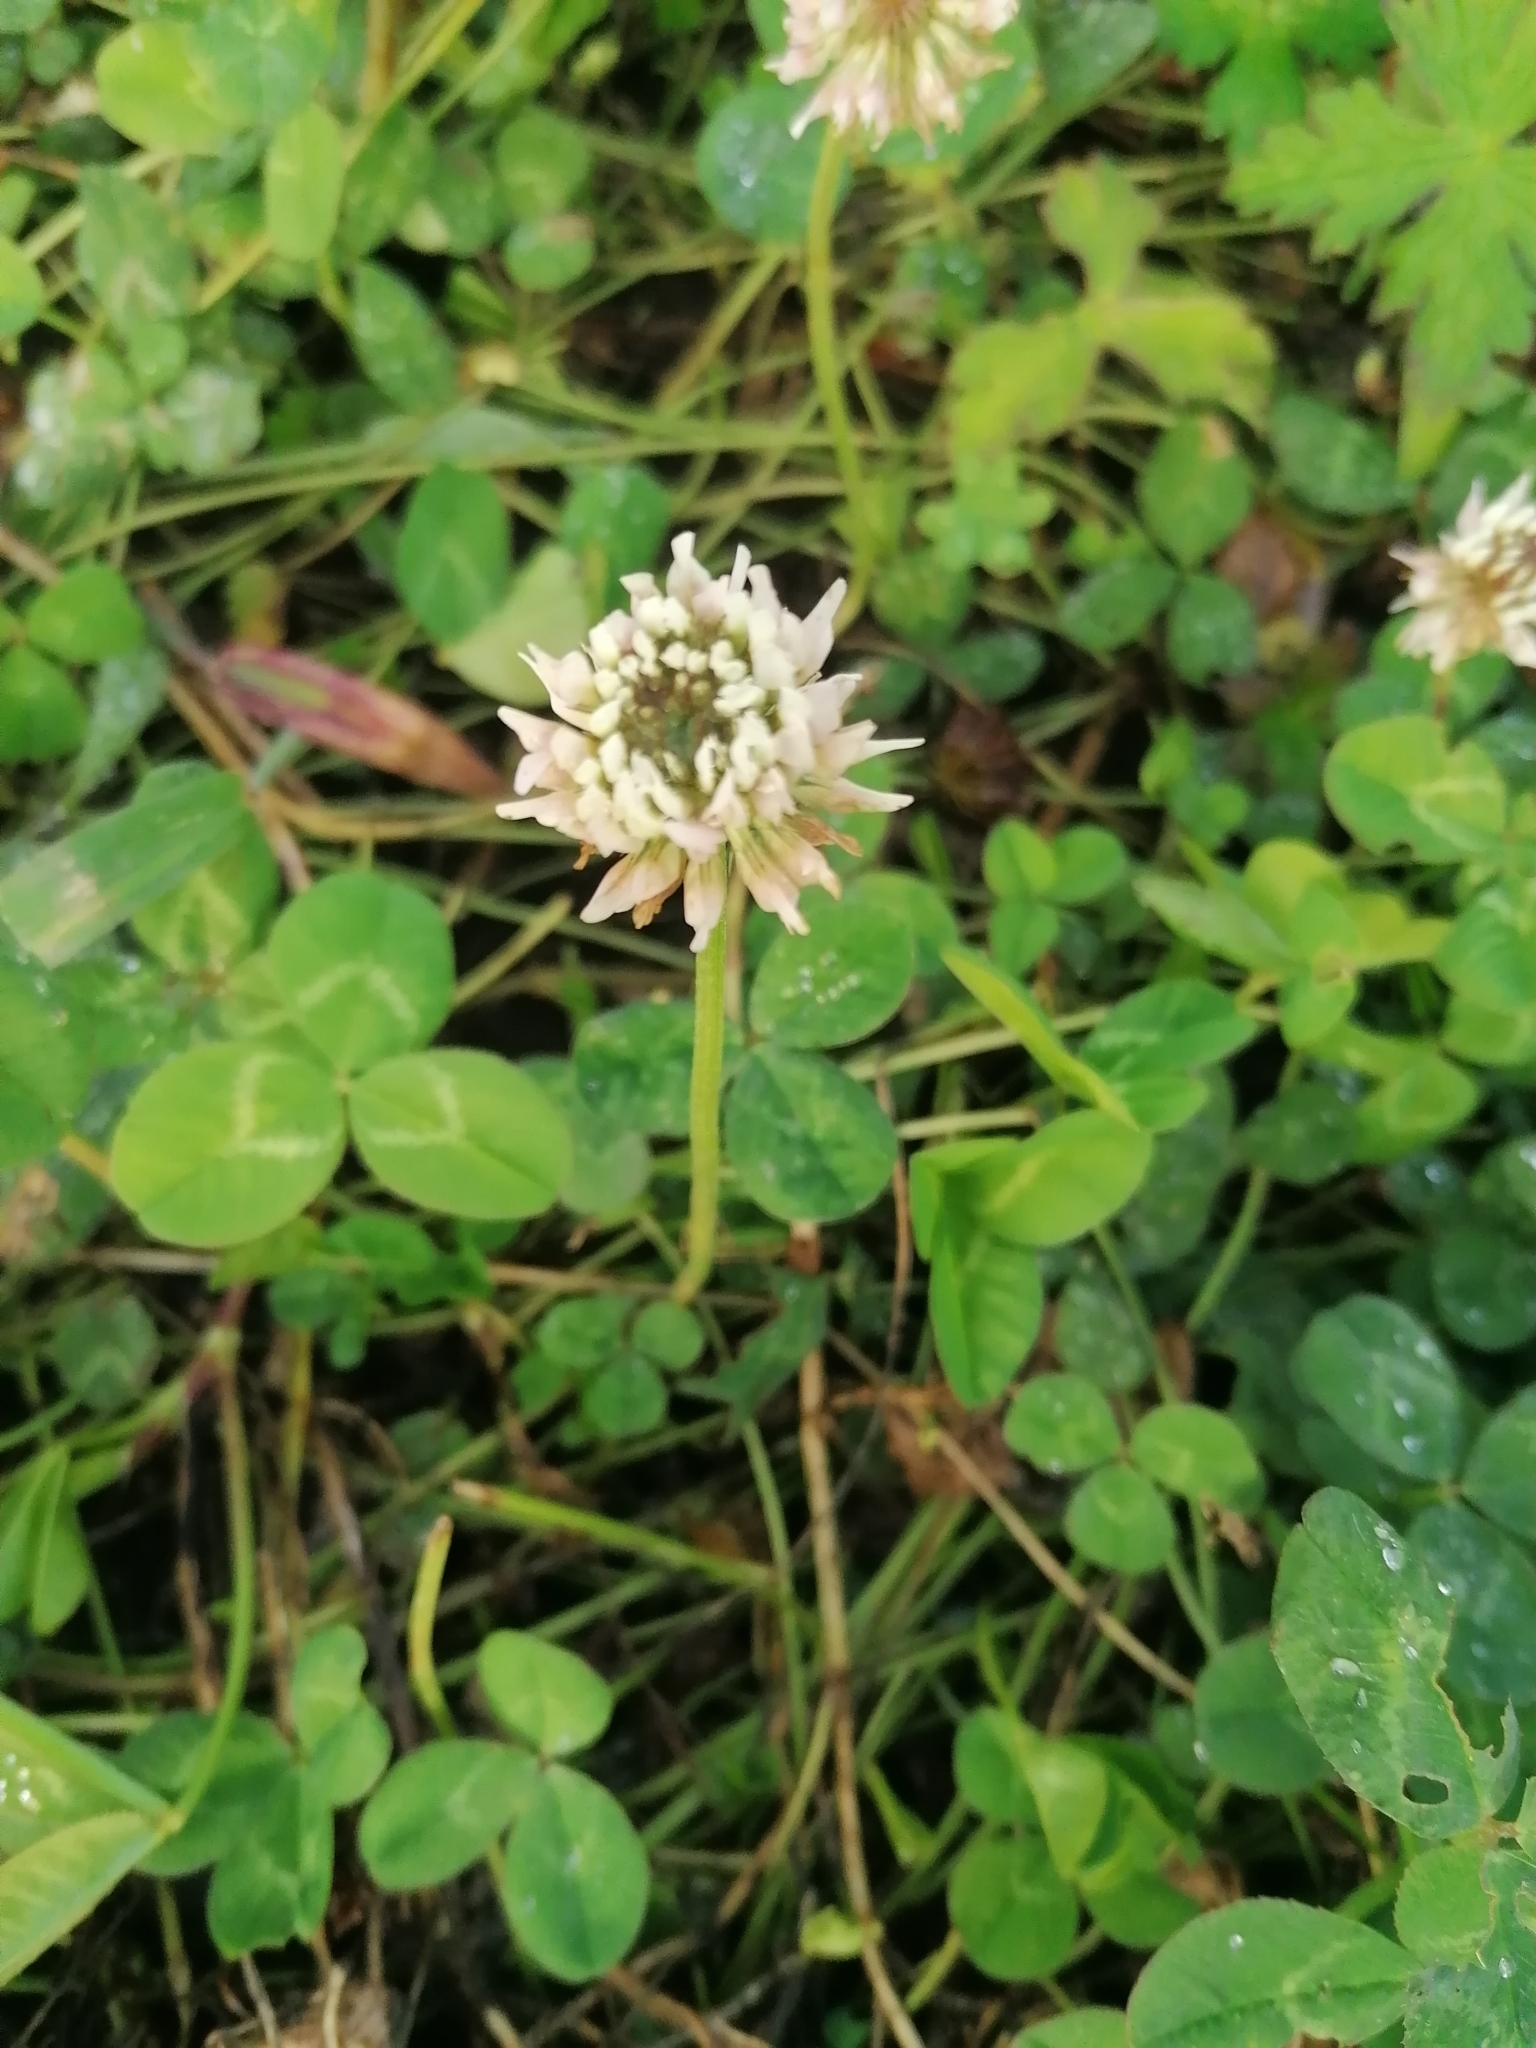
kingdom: Plantae
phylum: Tracheophyta
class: Magnoliopsida
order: Fabales
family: Fabaceae
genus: Trifolium
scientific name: Trifolium repens
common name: White clover
